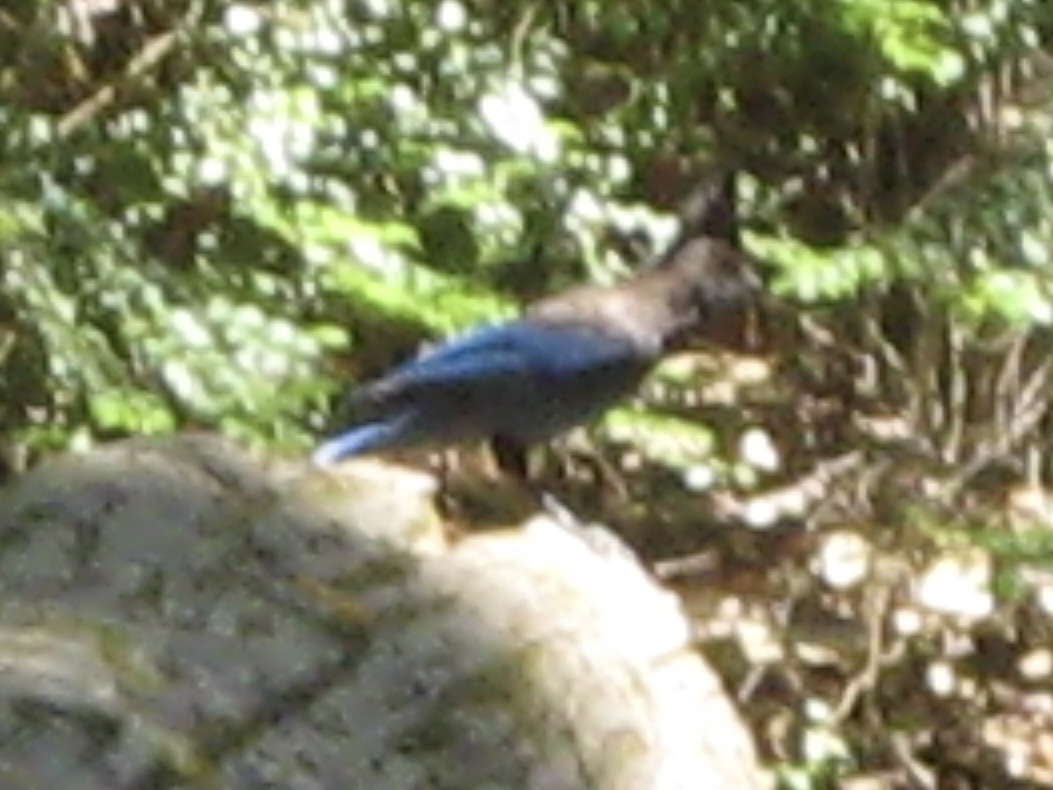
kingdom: Animalia
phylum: Chordata
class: Aves
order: Passeriformes
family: Corvidae
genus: Cyanocitta
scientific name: Cyanocitta stelleri
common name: Steller's jay
